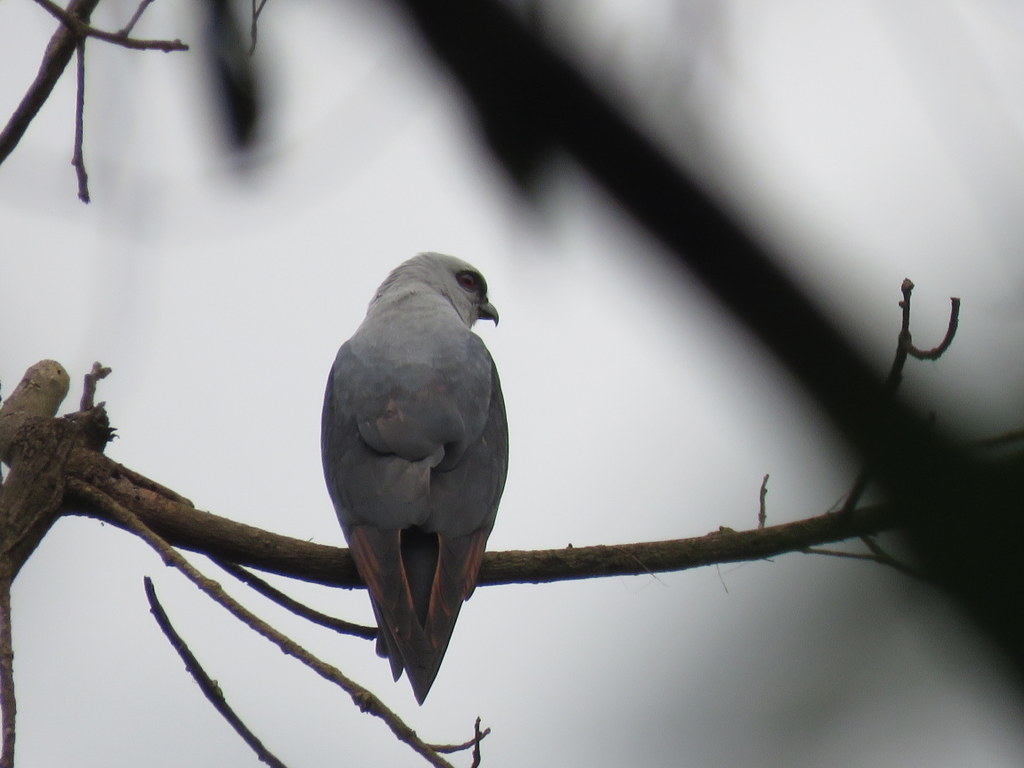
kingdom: Animalia
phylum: Chordata
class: Aves
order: Accipitriformes
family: Accipitridae
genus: Ictinia
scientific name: Ictinia plumbea
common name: Plumbeous kite
